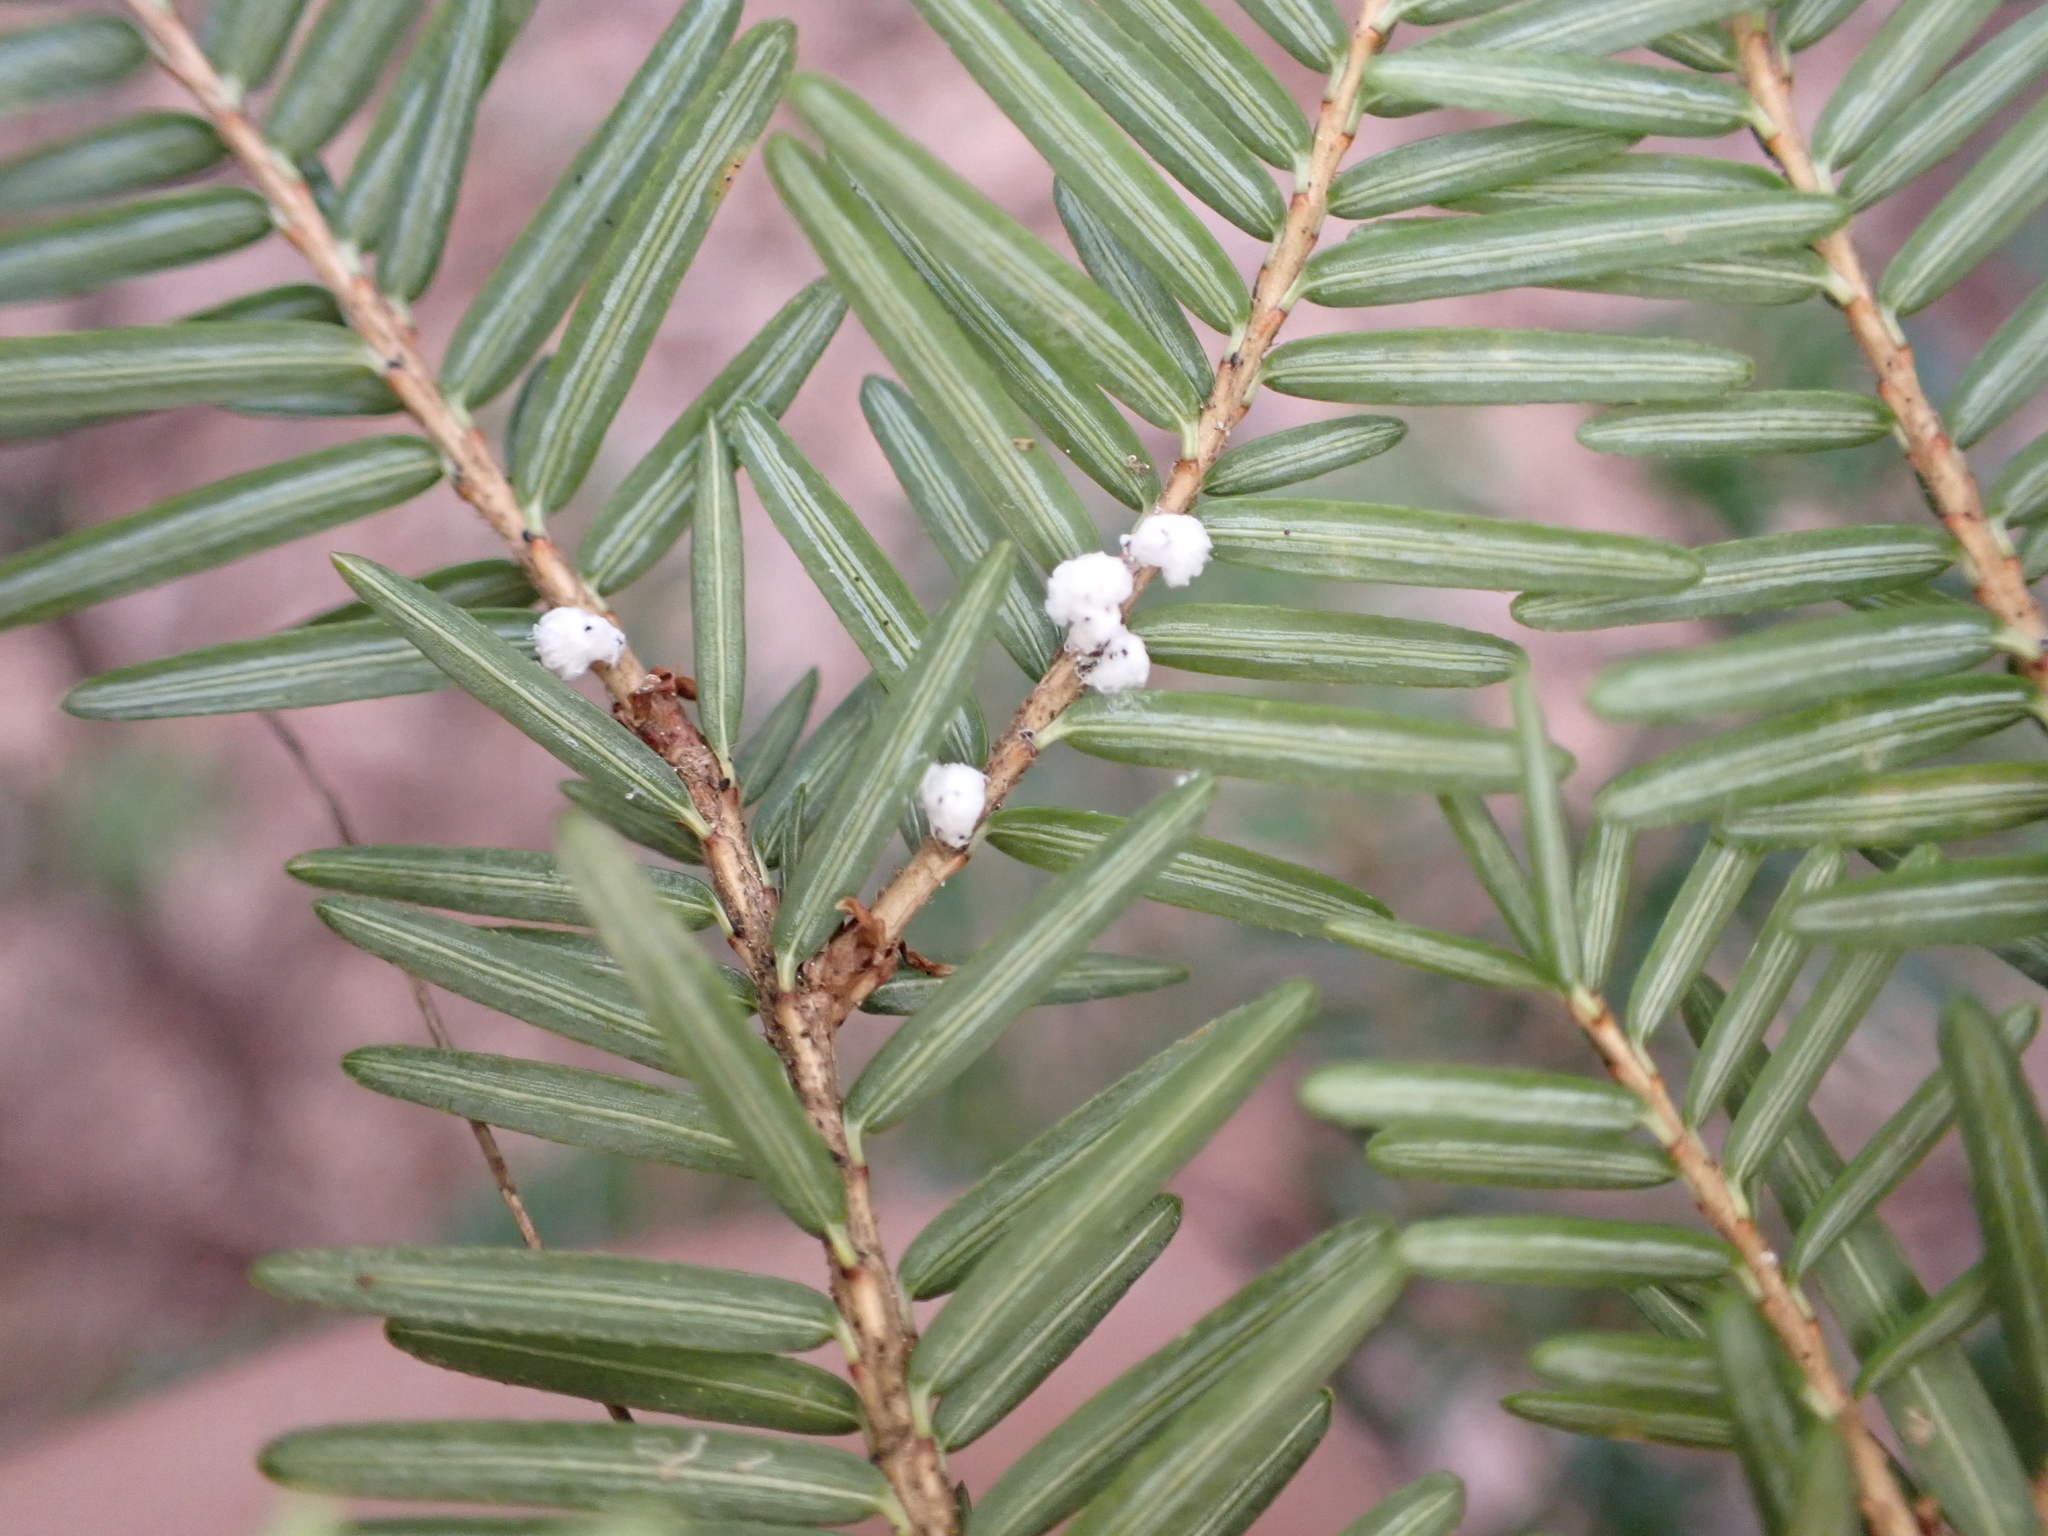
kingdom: Animalia
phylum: Arthropoda
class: Insecta
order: Hemiptera
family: Adelgidae
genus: Adelges
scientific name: Adelges tsugae
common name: Hemlock woolly adelgid
